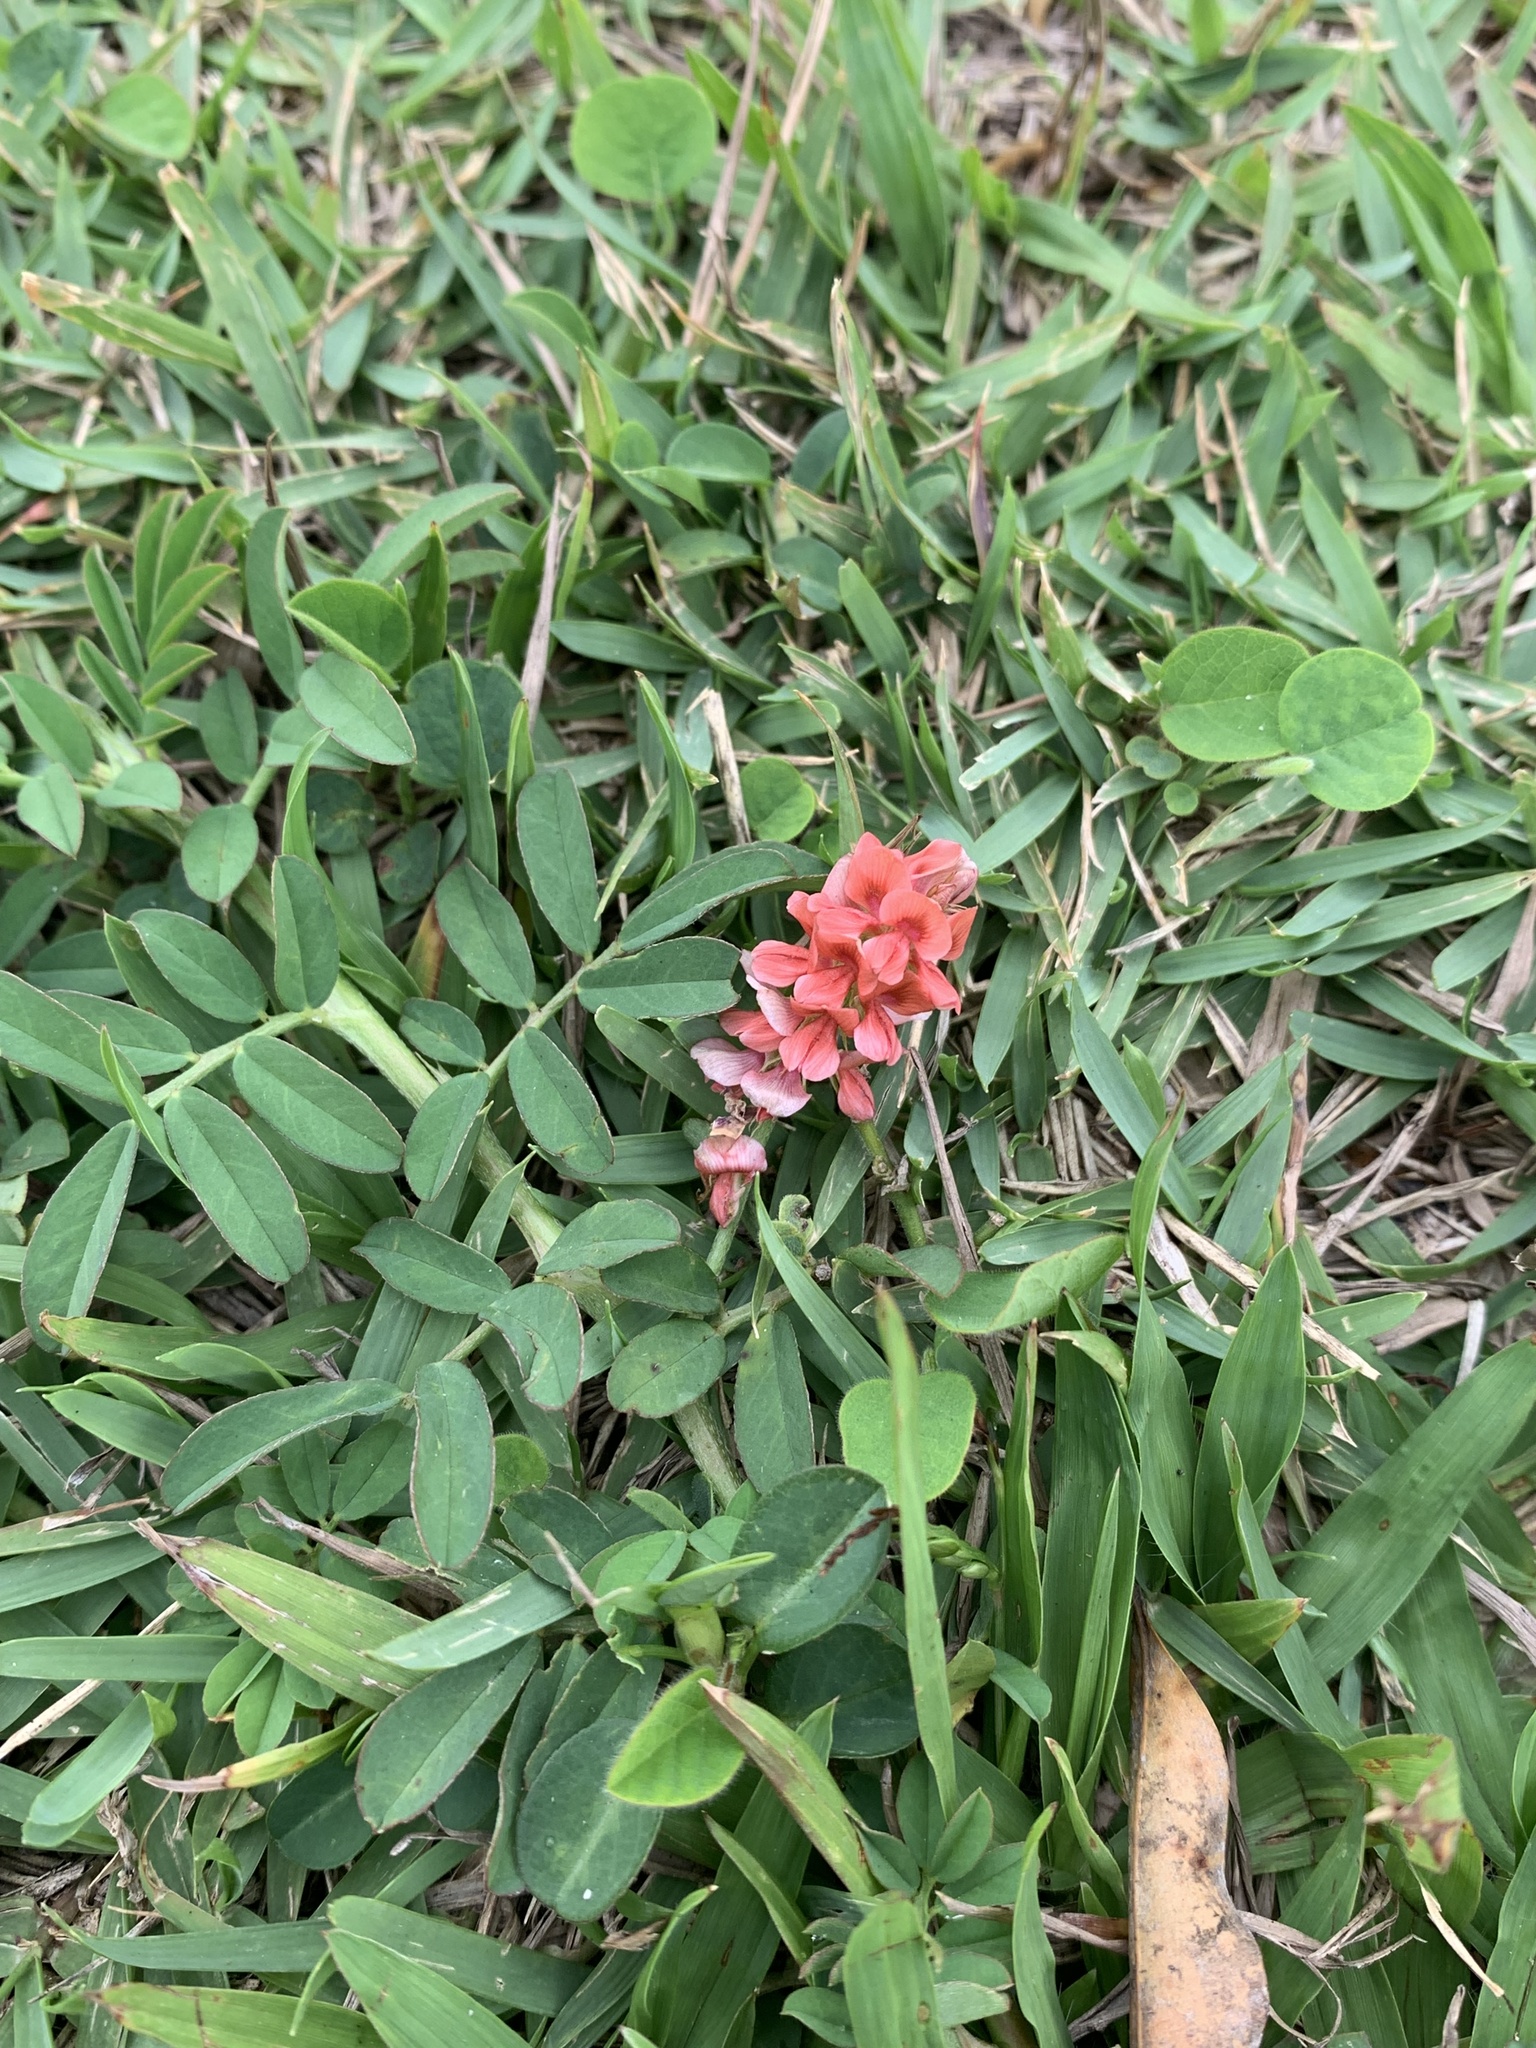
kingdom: Plantae
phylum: Tracheophyta
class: Magnoliopsida
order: Fabales
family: Fabaceae
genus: Indigofera
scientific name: Indigofera spicata
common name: Creeping indigo
